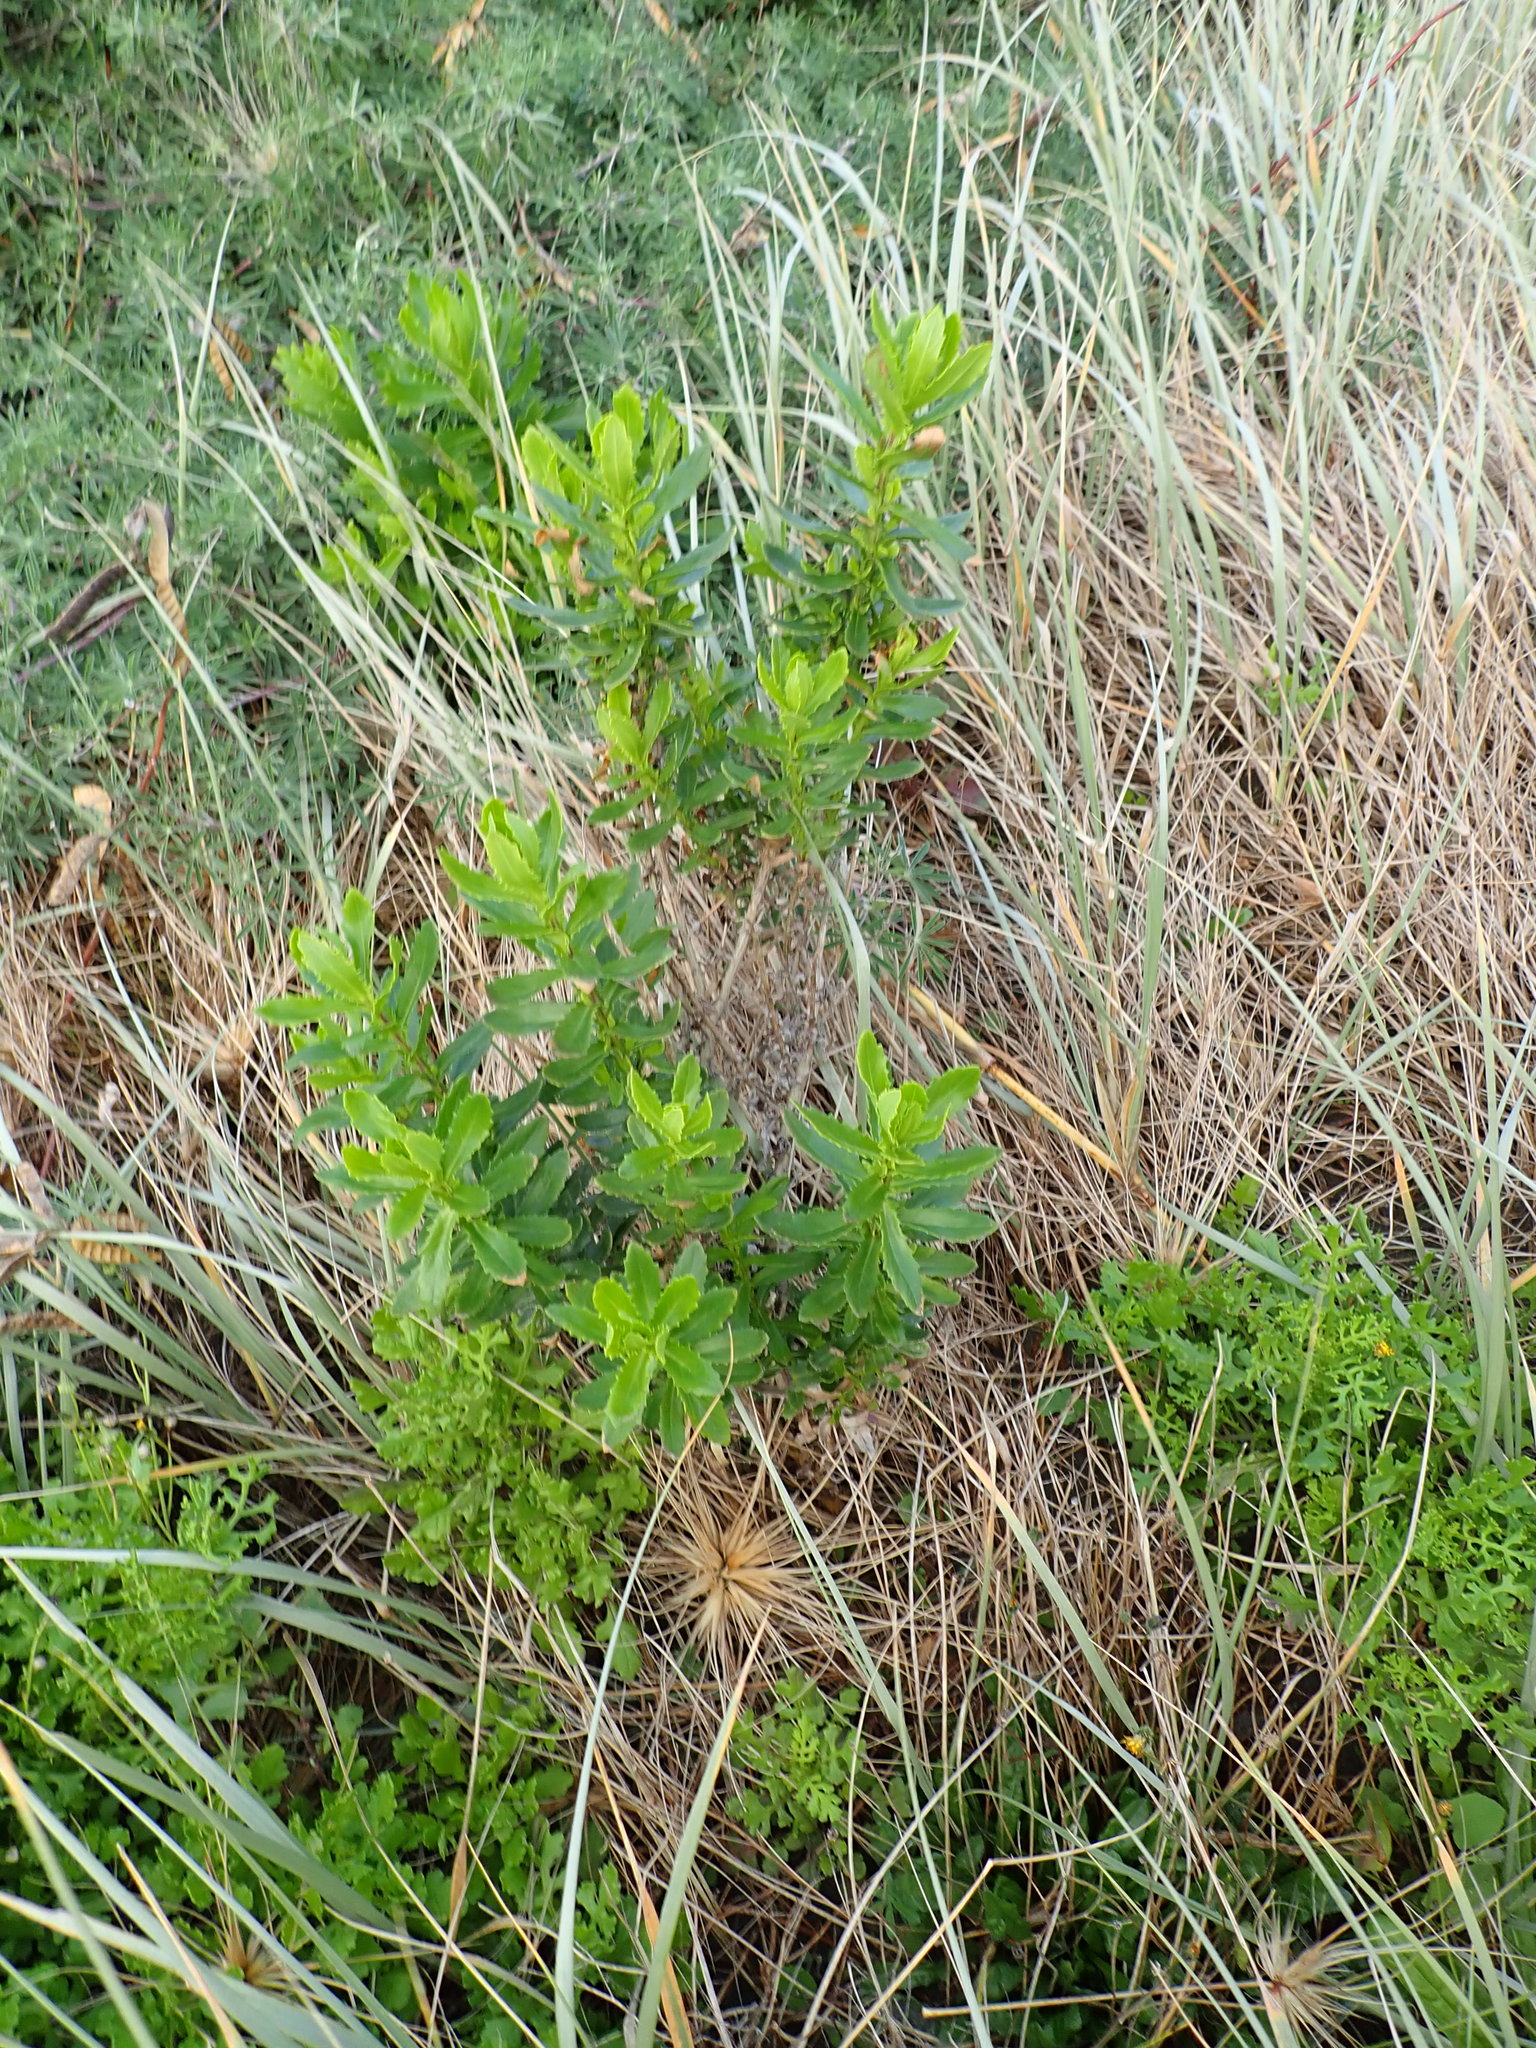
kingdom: Plantae
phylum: Tracheophyta
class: Magnoliopsida
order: Asterales
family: Asteraceae
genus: Senecio
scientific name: Senecio glastifolius
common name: Woad-leaved ragwort
